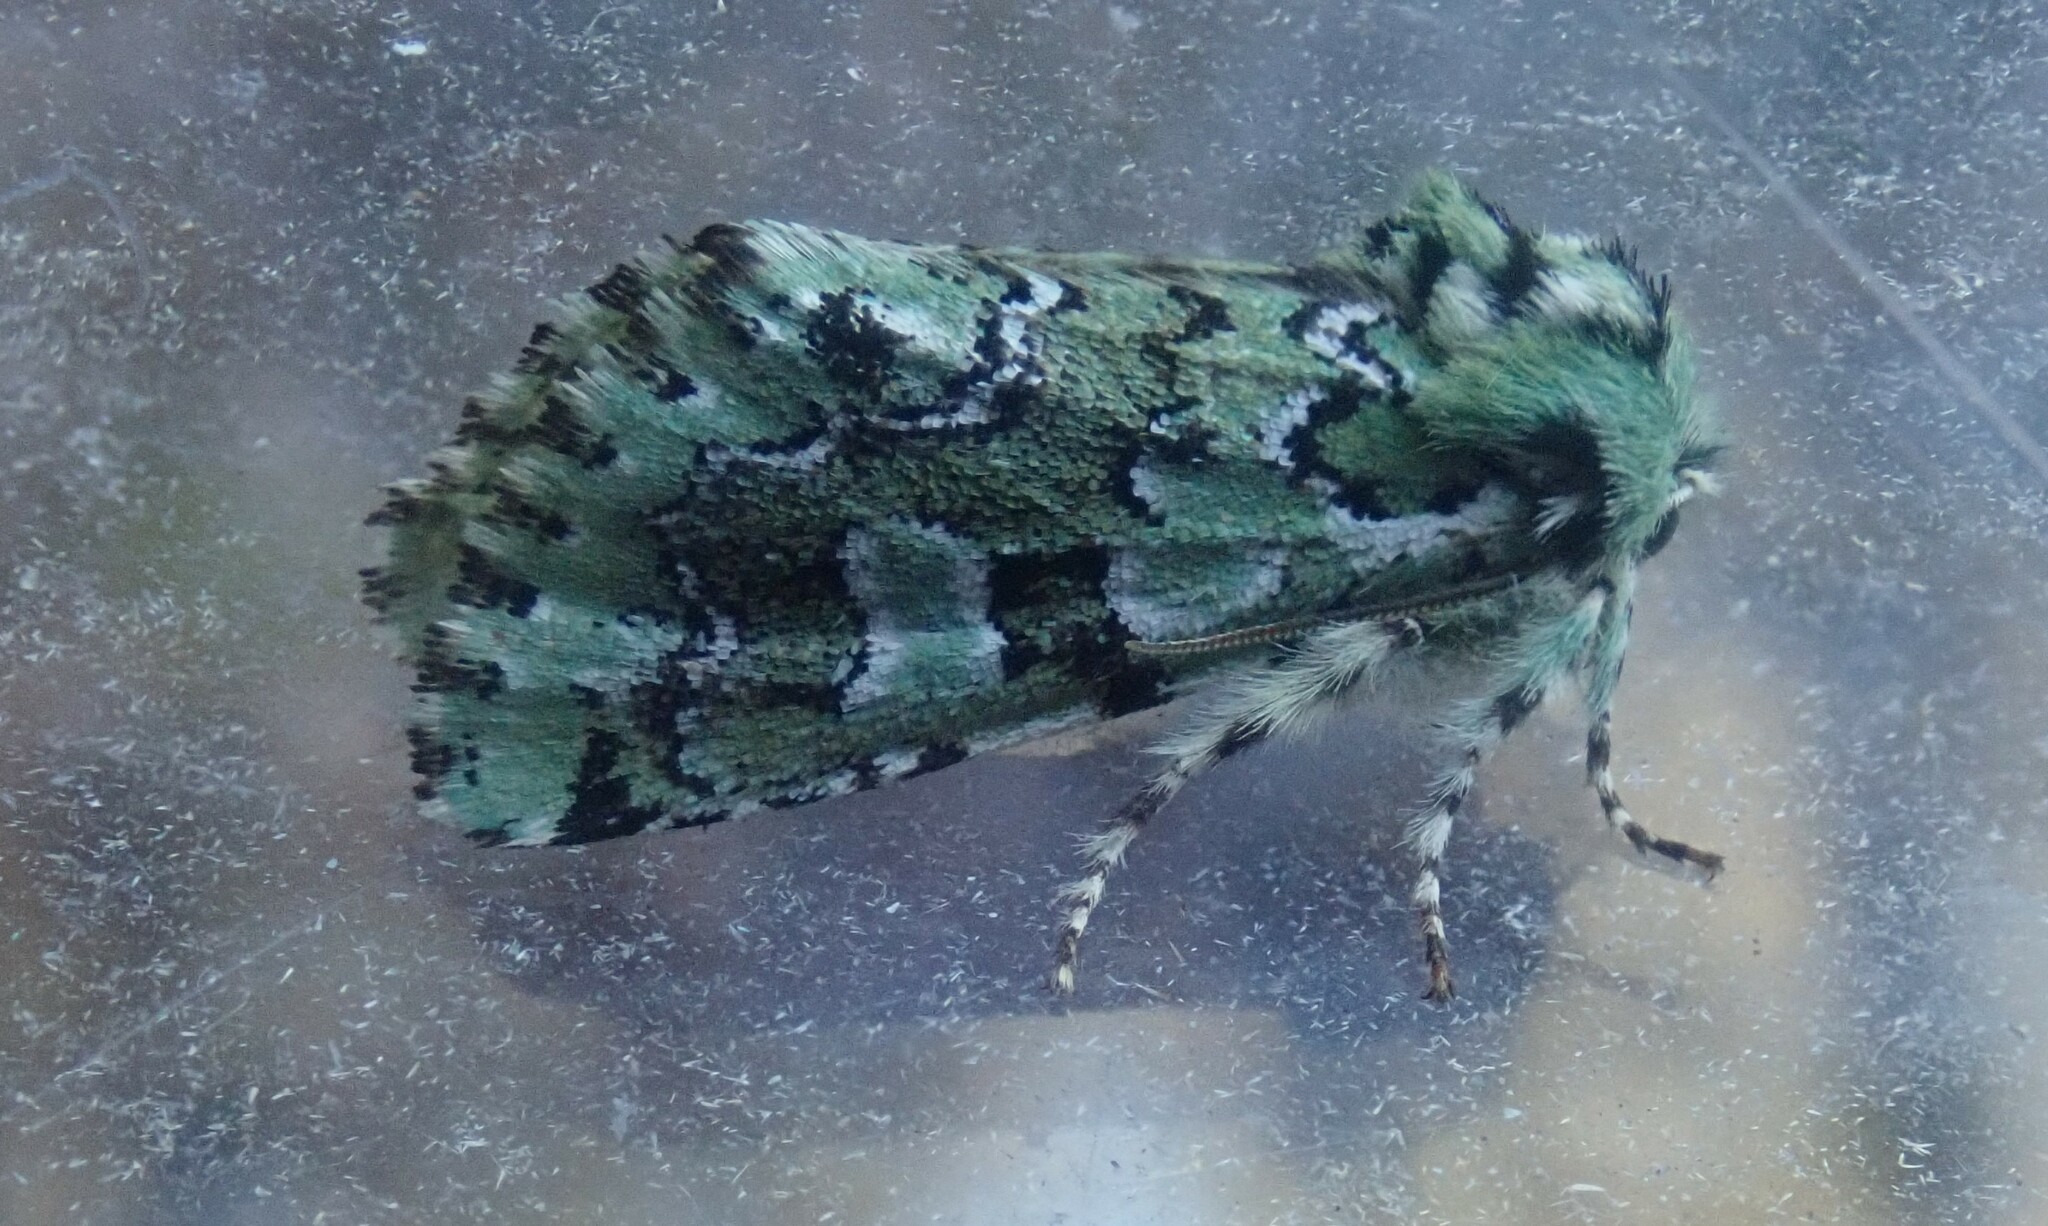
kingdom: Animalia
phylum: Arthropoda
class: Insecta
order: Lepidoptera
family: Noctuidae
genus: Feralia
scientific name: Feralia jocosa
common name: Joker
